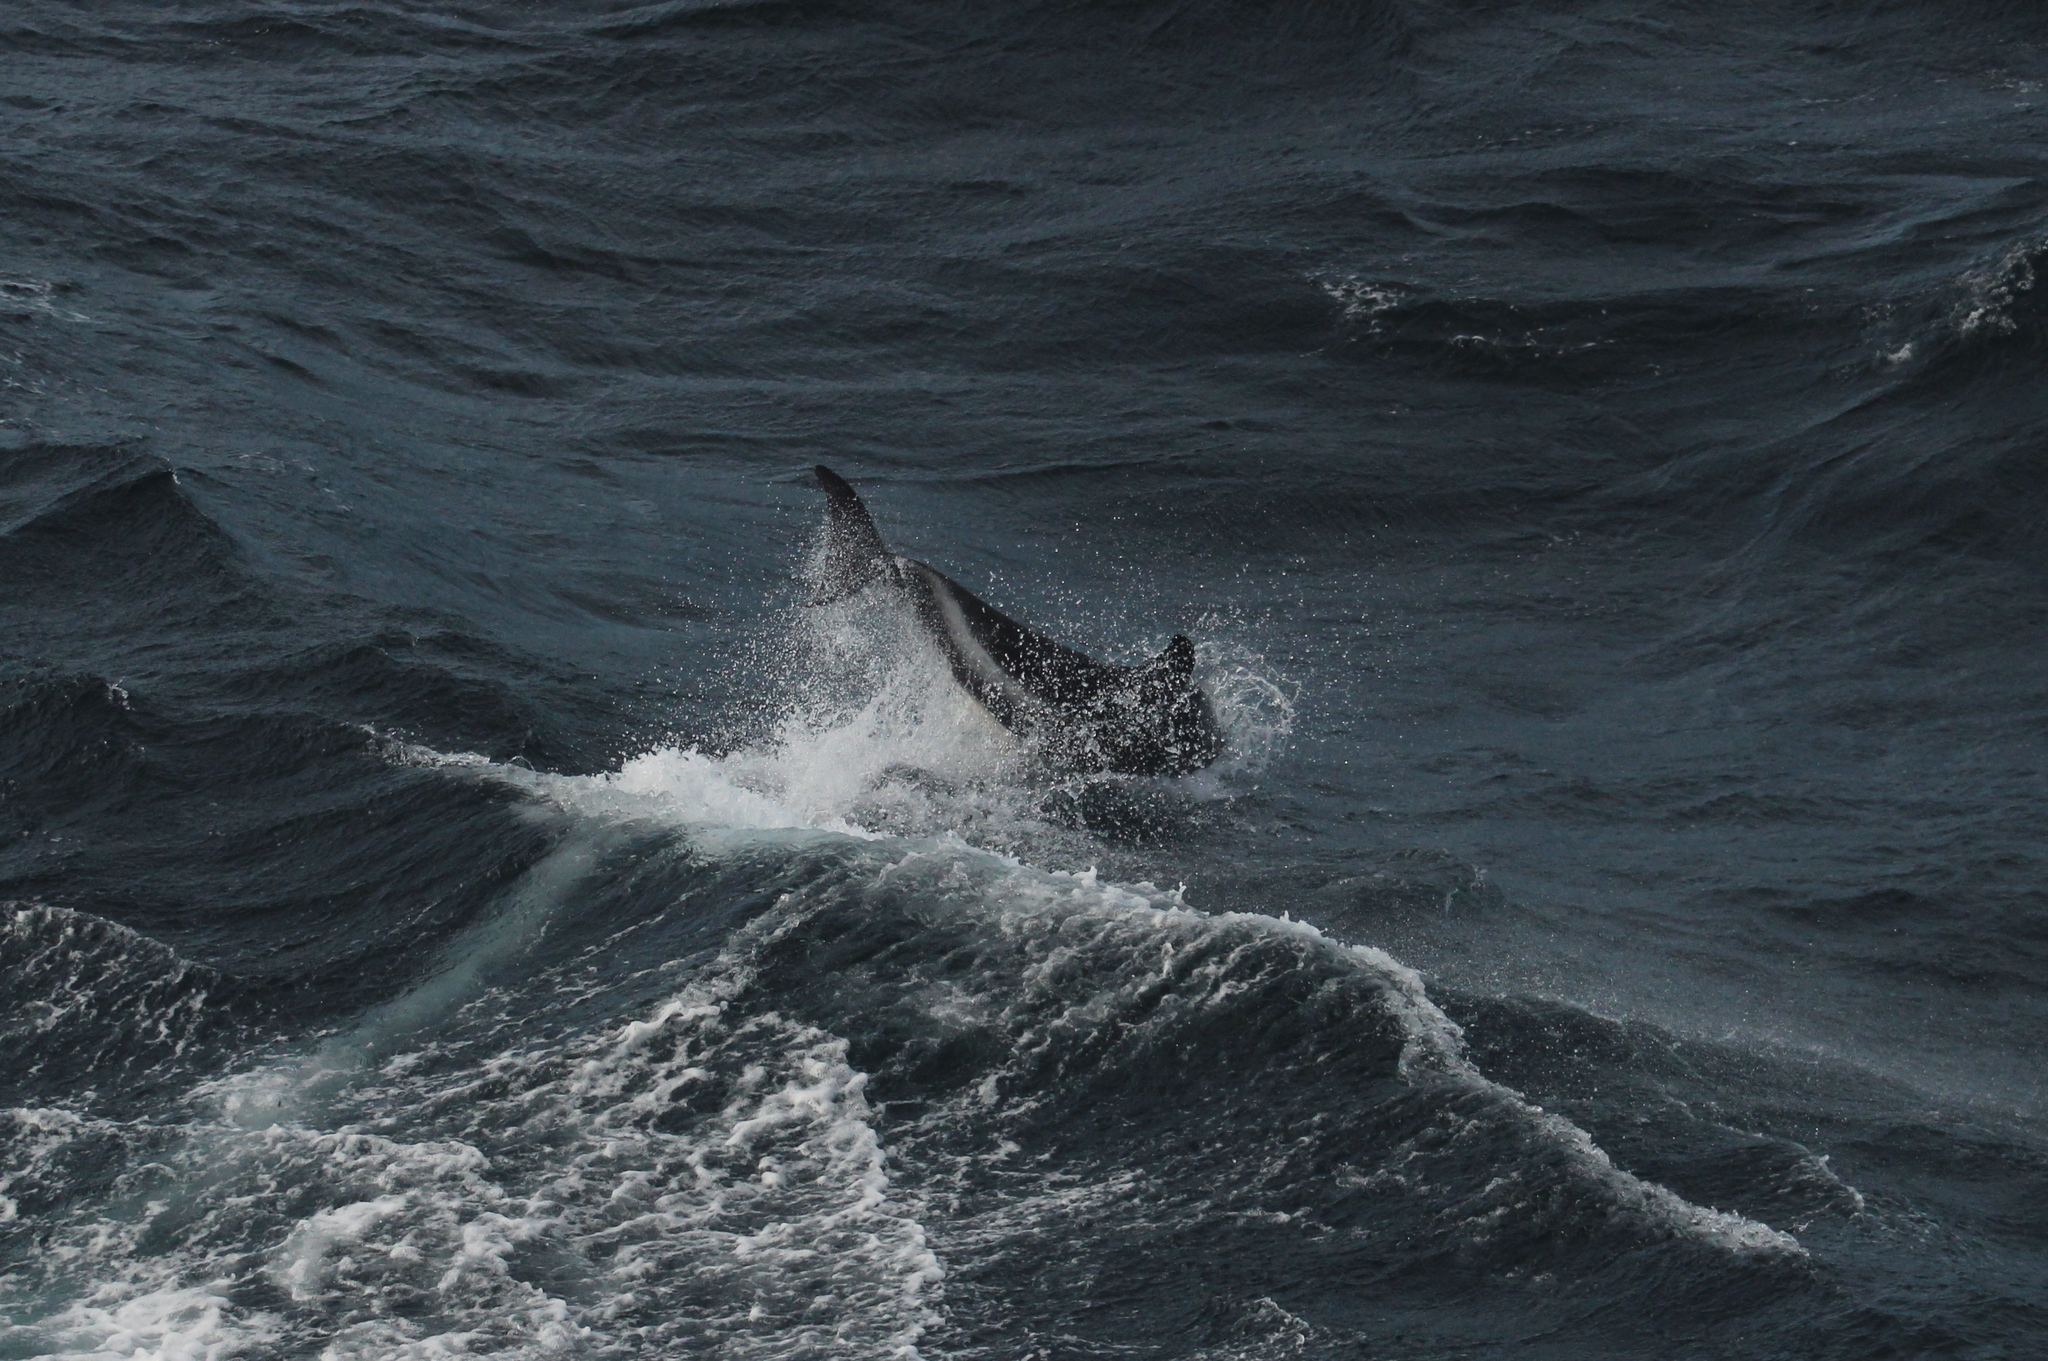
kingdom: Animalia
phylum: Chordata
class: Mammalia
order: Cetacea
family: Delphinidae
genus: Lagenorhynchus
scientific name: Lagenorhynchus australis
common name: Peale's dolphin
